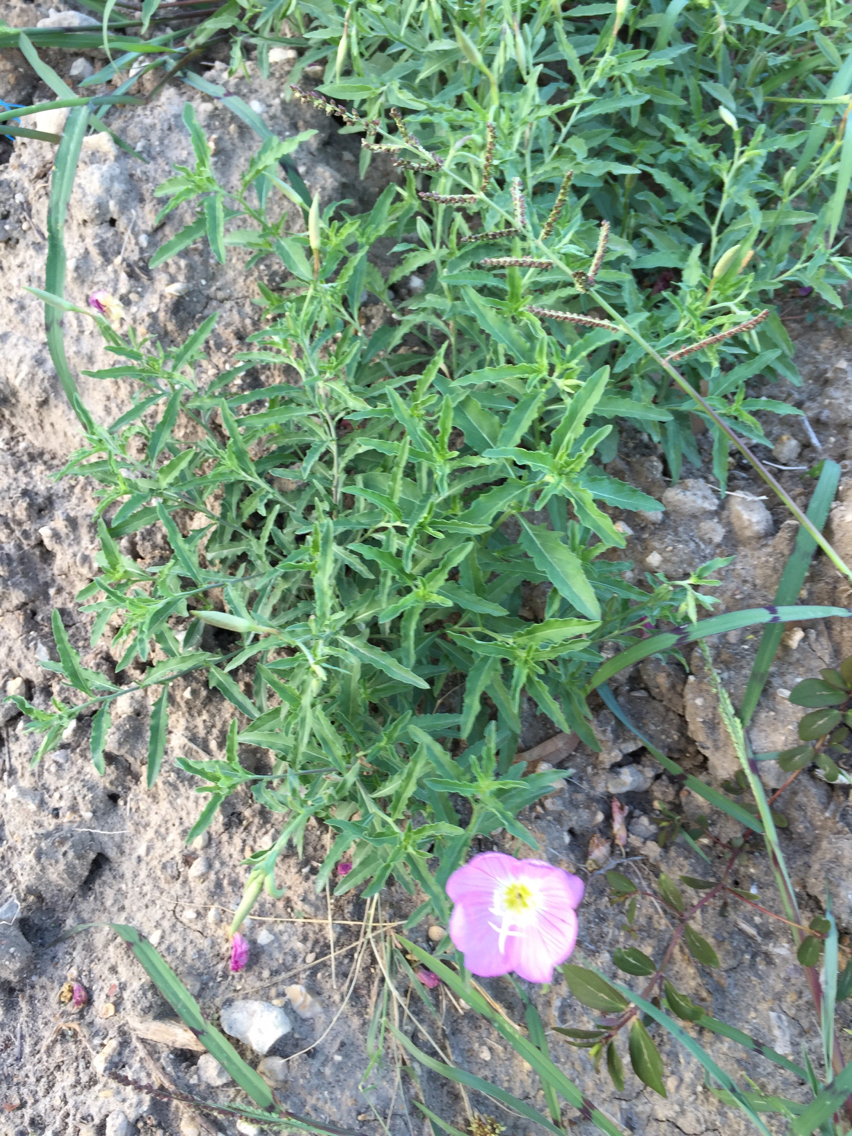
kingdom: Plantae
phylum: Tracheophyta
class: Magnoliopsida
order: Myrtales
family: Onagraceae
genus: Oenothera
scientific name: Oenothera speciosa
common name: White evening-primrose
